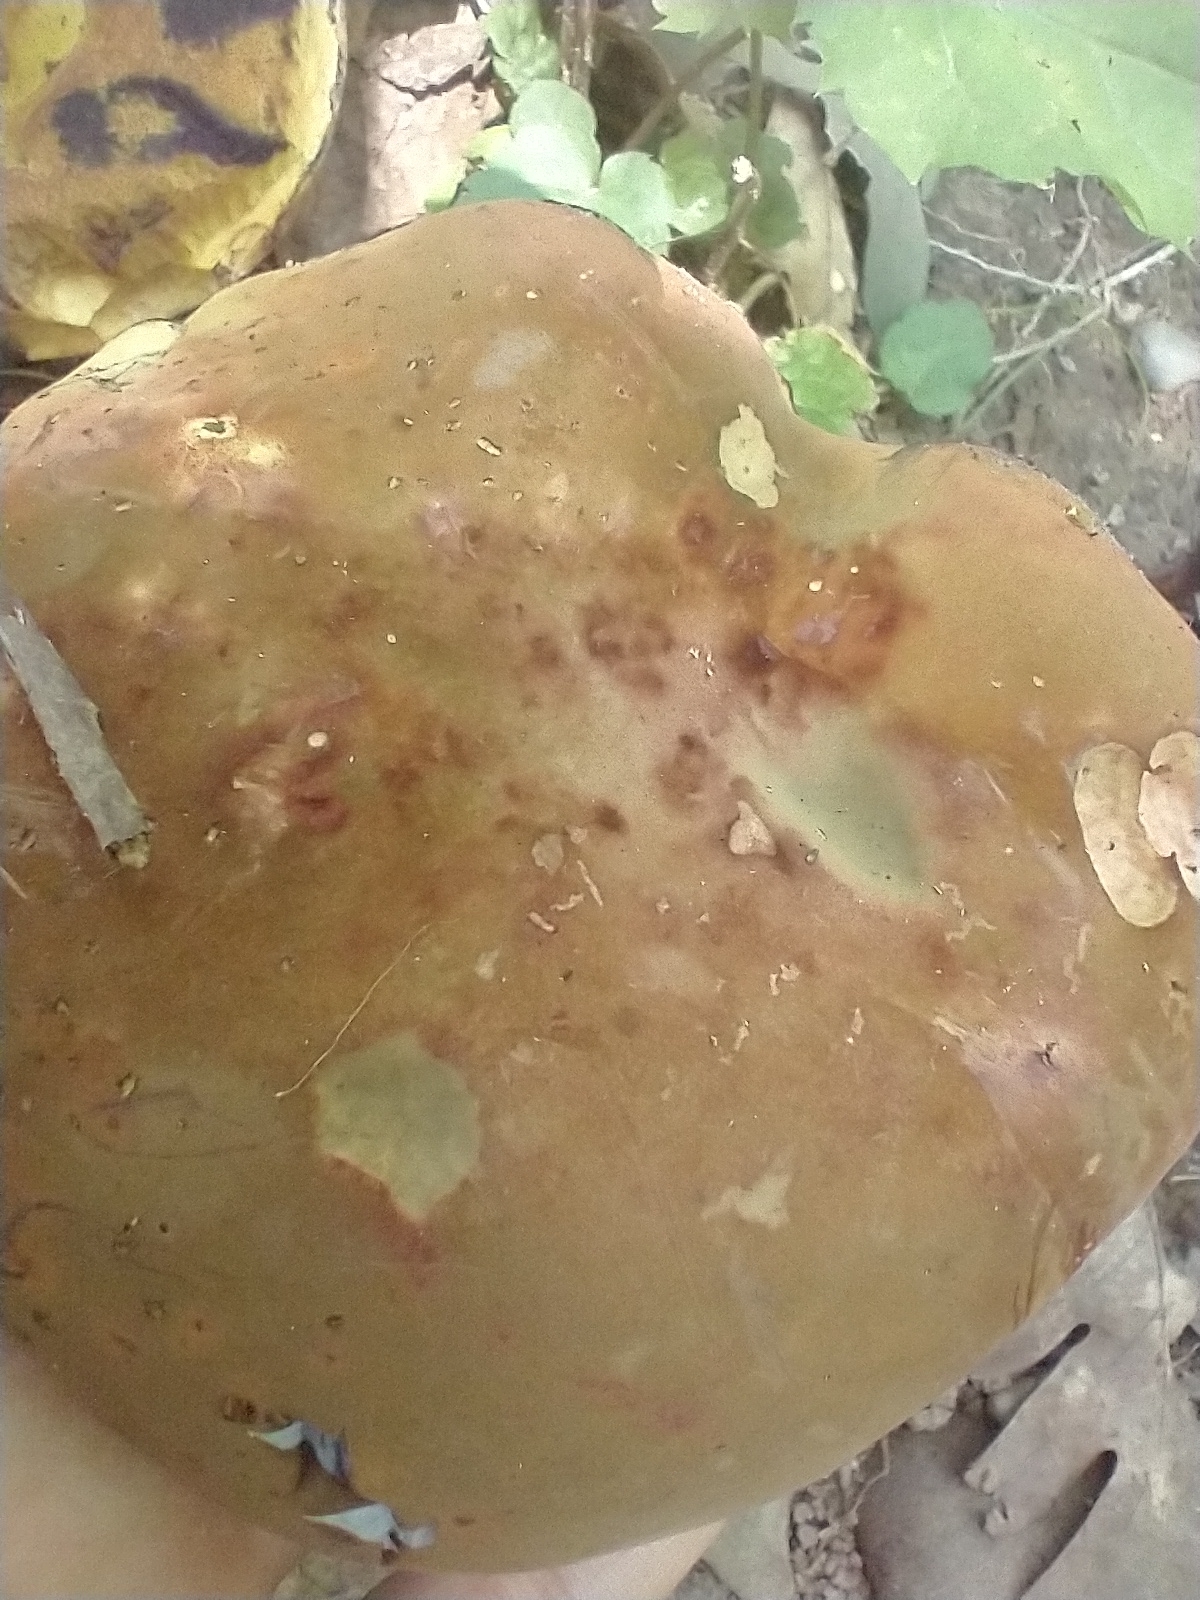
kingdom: Fungi
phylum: Basidiomycota
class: Agaricomycetes
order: Boletales
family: Boletaceae
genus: Boletus
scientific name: Boletus subvelutipes
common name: Red-mouth bolete
